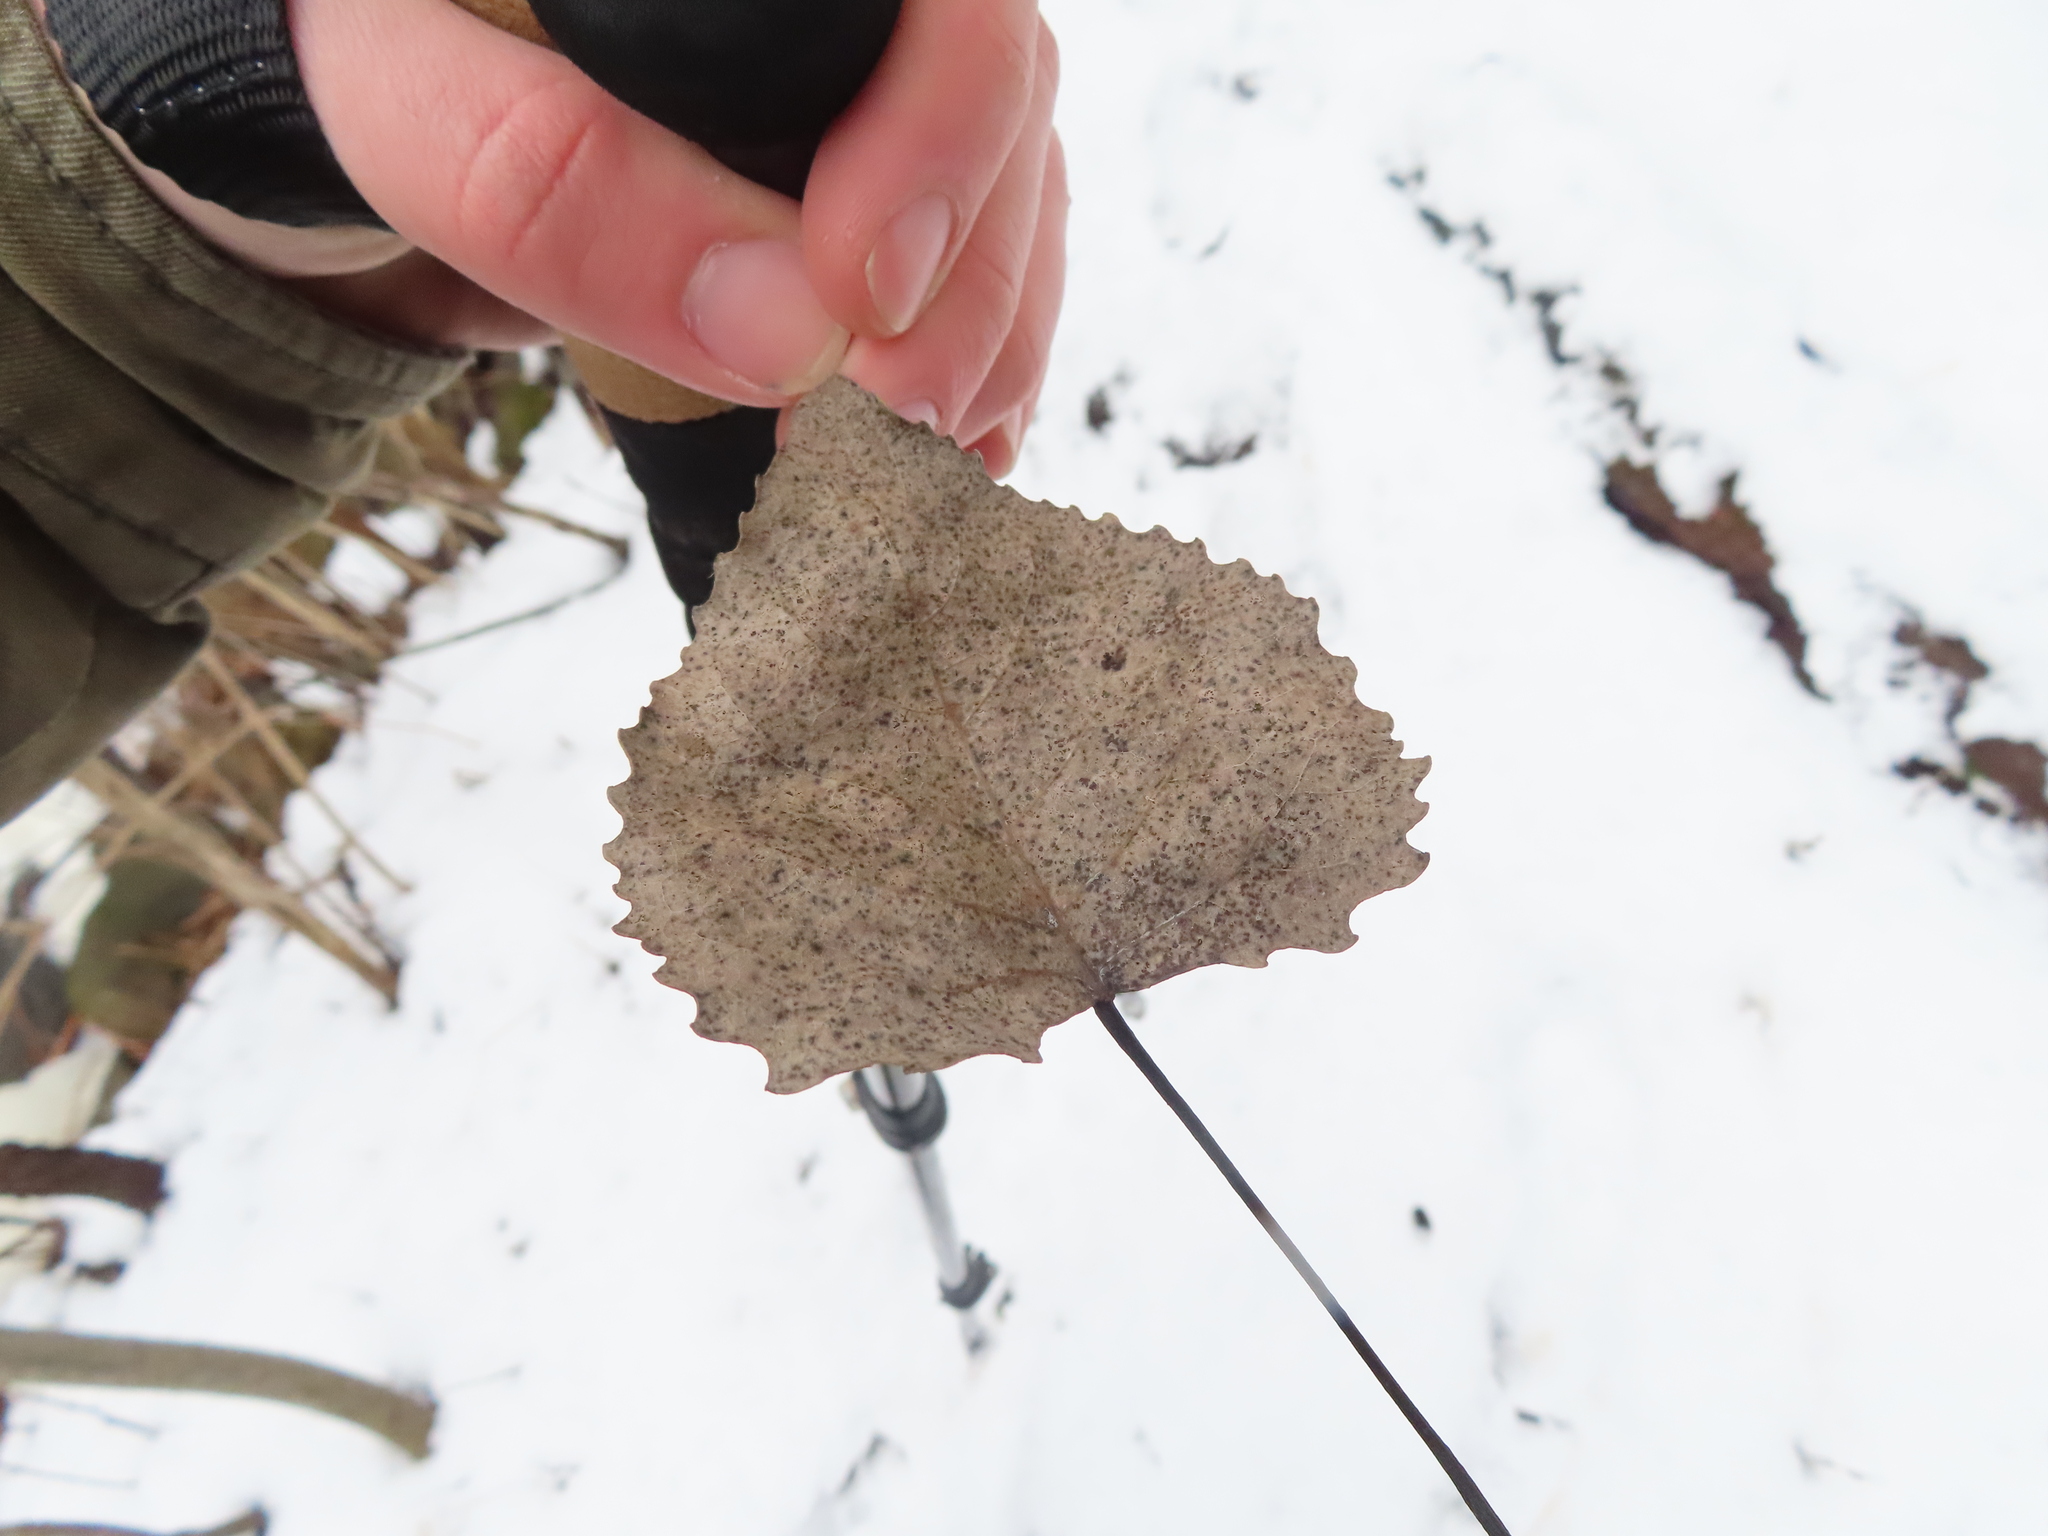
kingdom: Plantae
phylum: Tracheophyta
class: Magnoliopsida
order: Malpighiales
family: Salicaceae
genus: Populus
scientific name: Populus deltoides
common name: Eastern cottonwood
